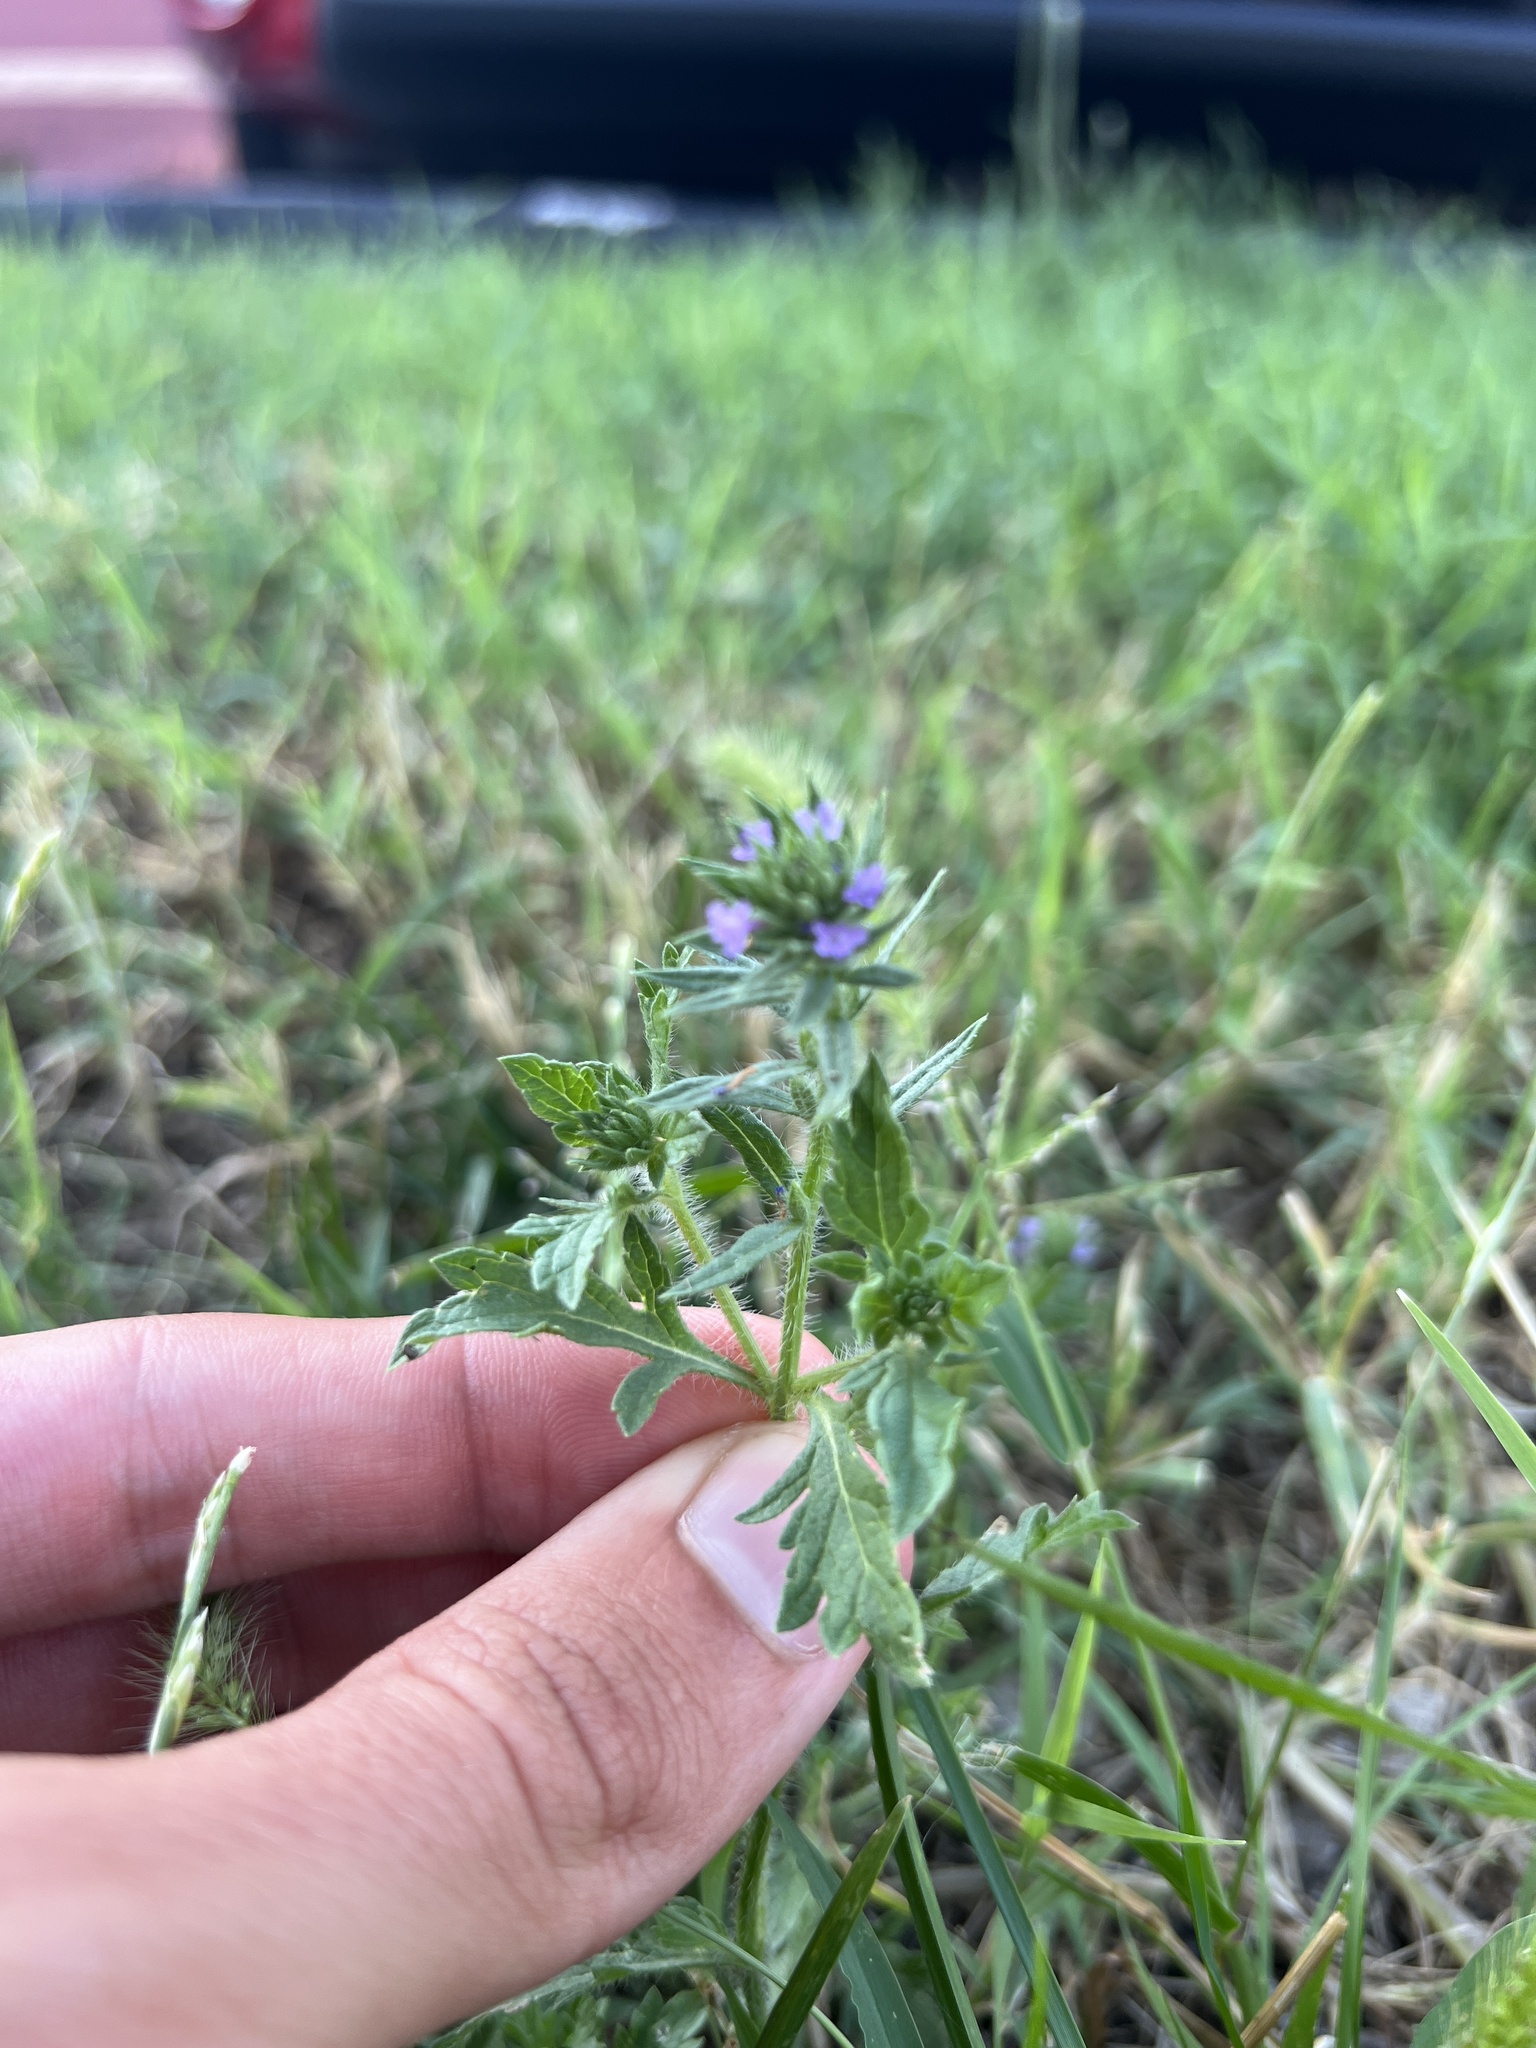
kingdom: Plantae
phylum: Tracheophyta
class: Magnoliopsida
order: Lamiales
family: Verbenaceae
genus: Verbena
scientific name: Verbena bracteata
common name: Bracted vervain
